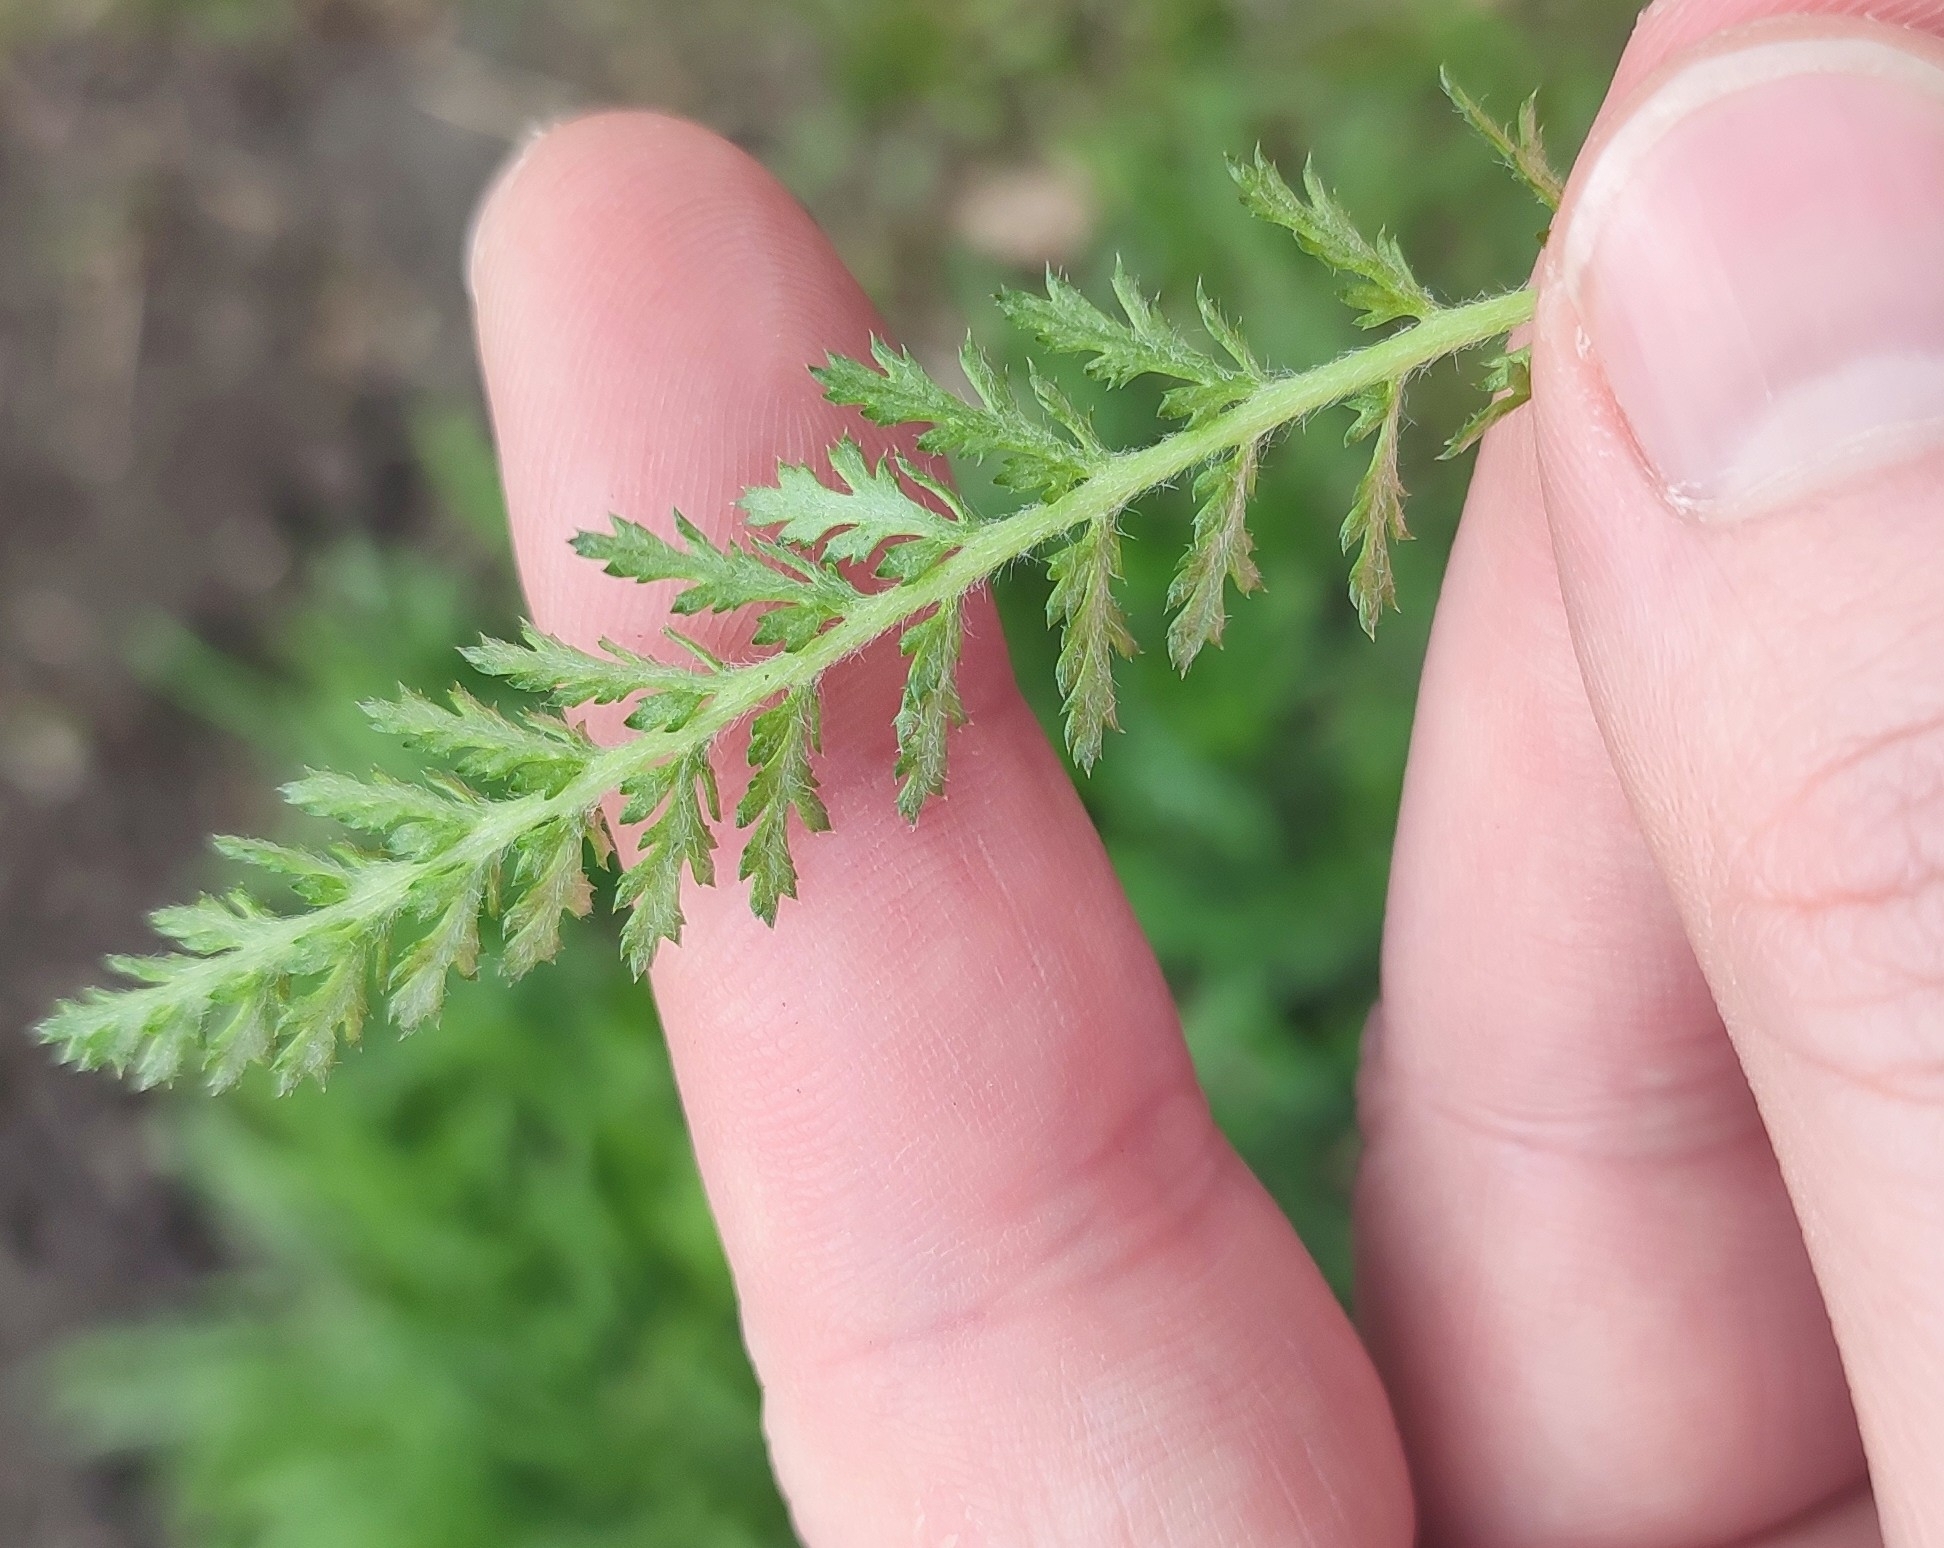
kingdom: Plantae
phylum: Tracheophyta
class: Magnoliopsida
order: Asterales
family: Asteraceae
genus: Achillea
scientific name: Achillea millefolium
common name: Yarrow
